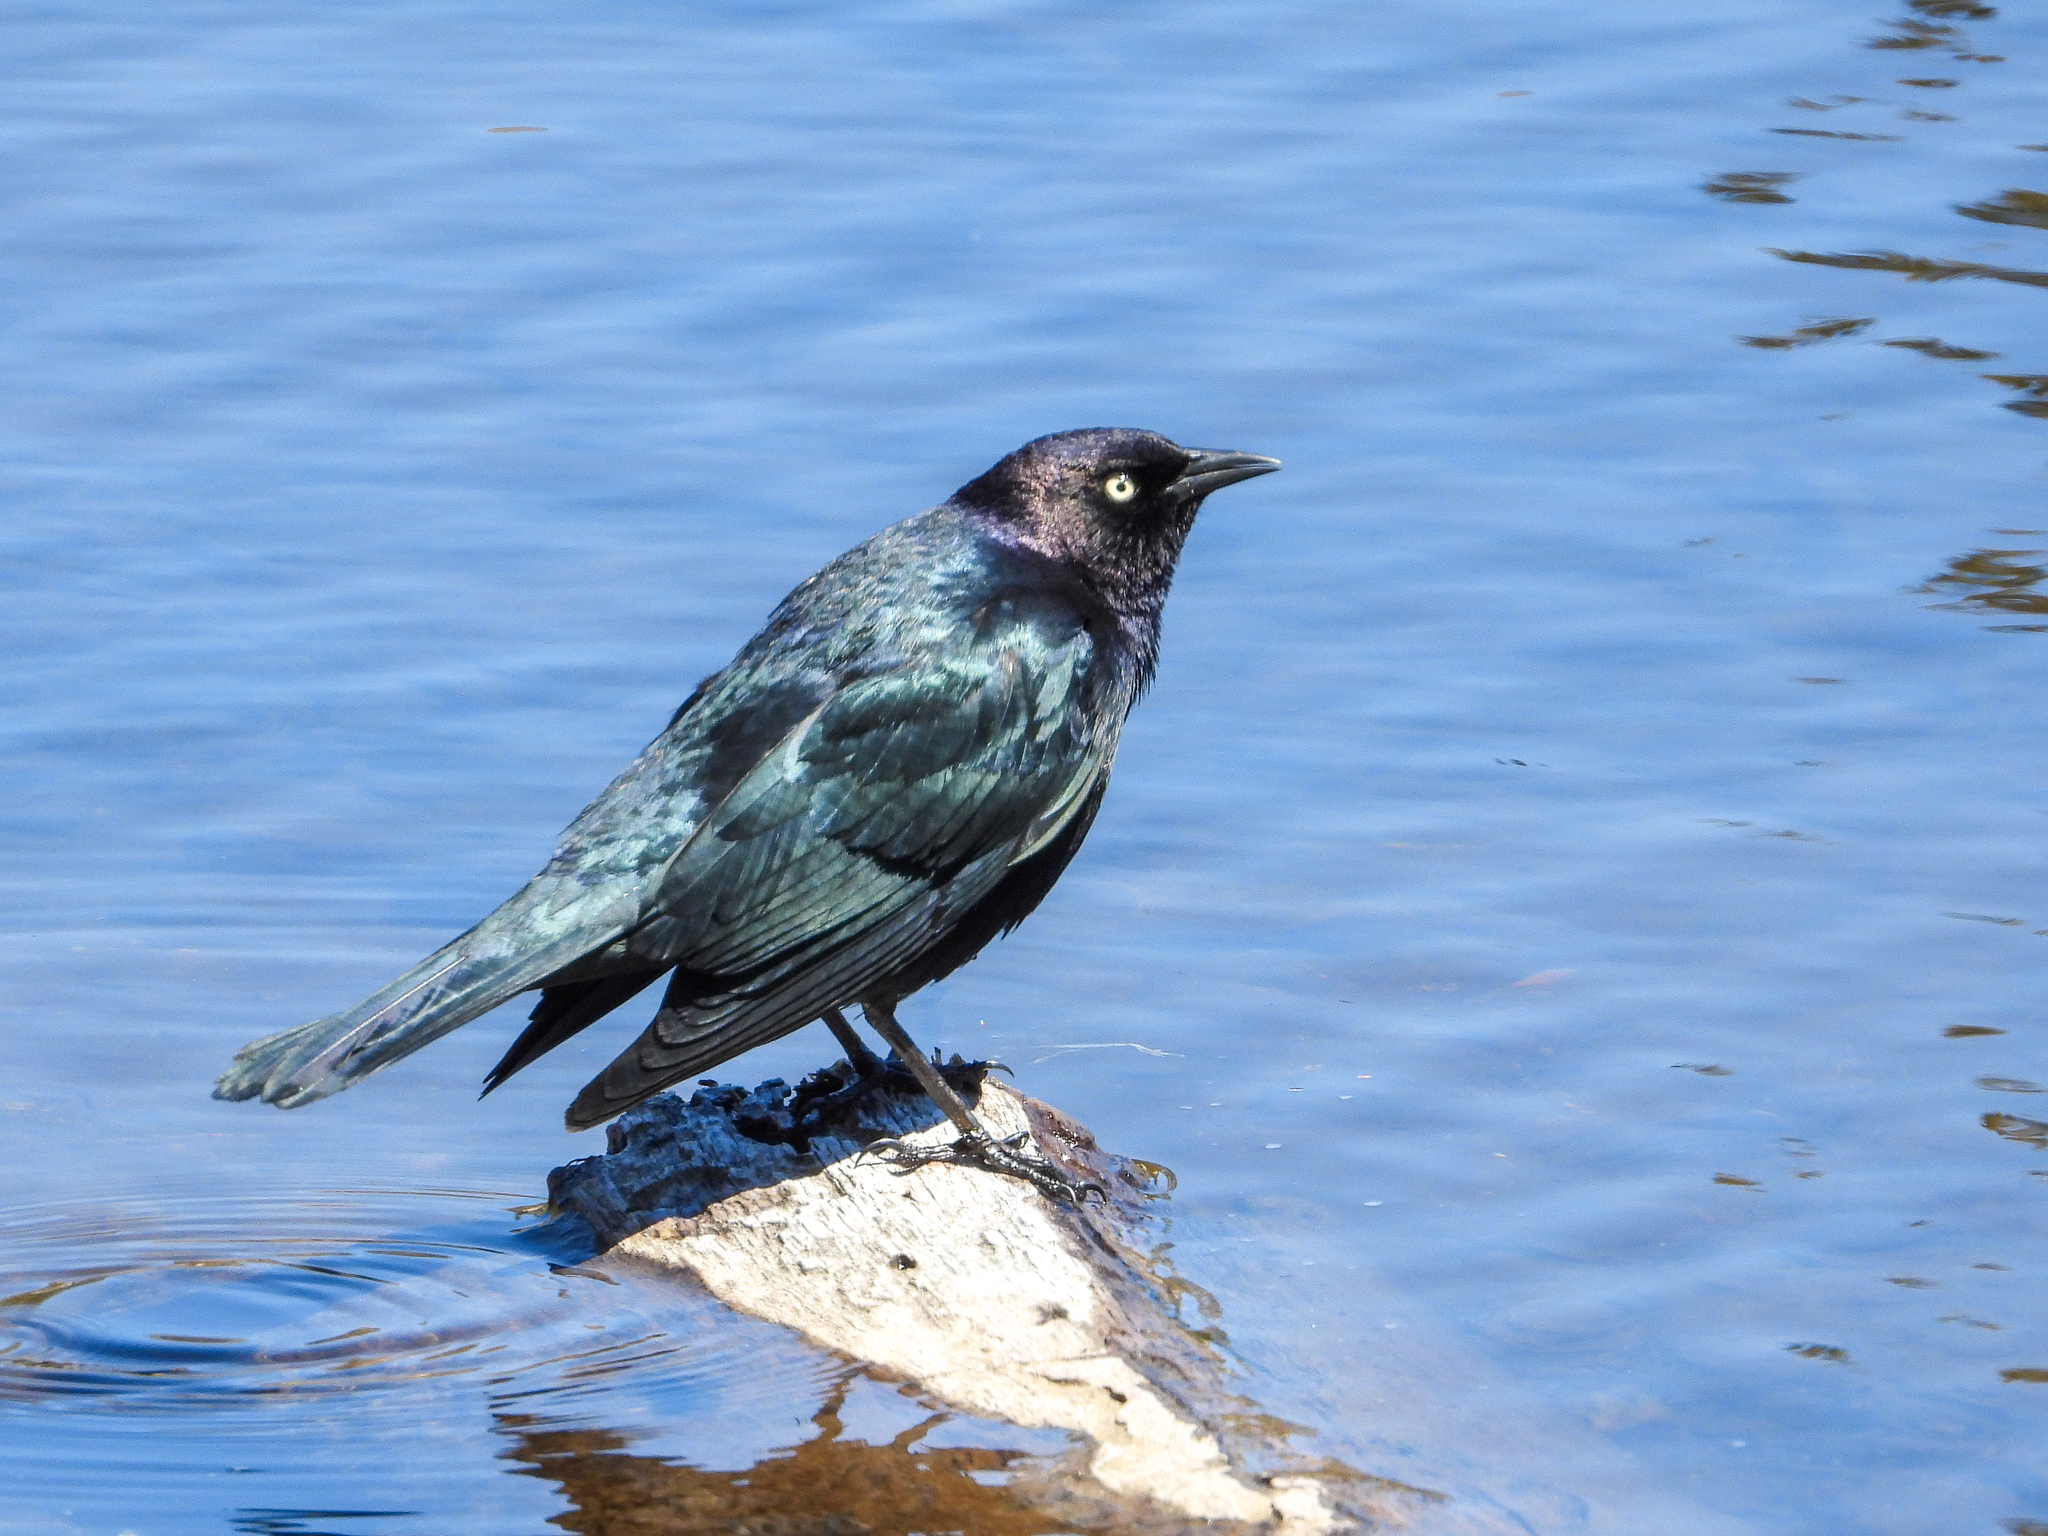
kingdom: Animalia
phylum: Chordata
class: Aves
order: Passeriformes
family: Icteridae
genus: Euphagus
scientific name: Euphagus cyanocephalus
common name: Brewer's blackbird
